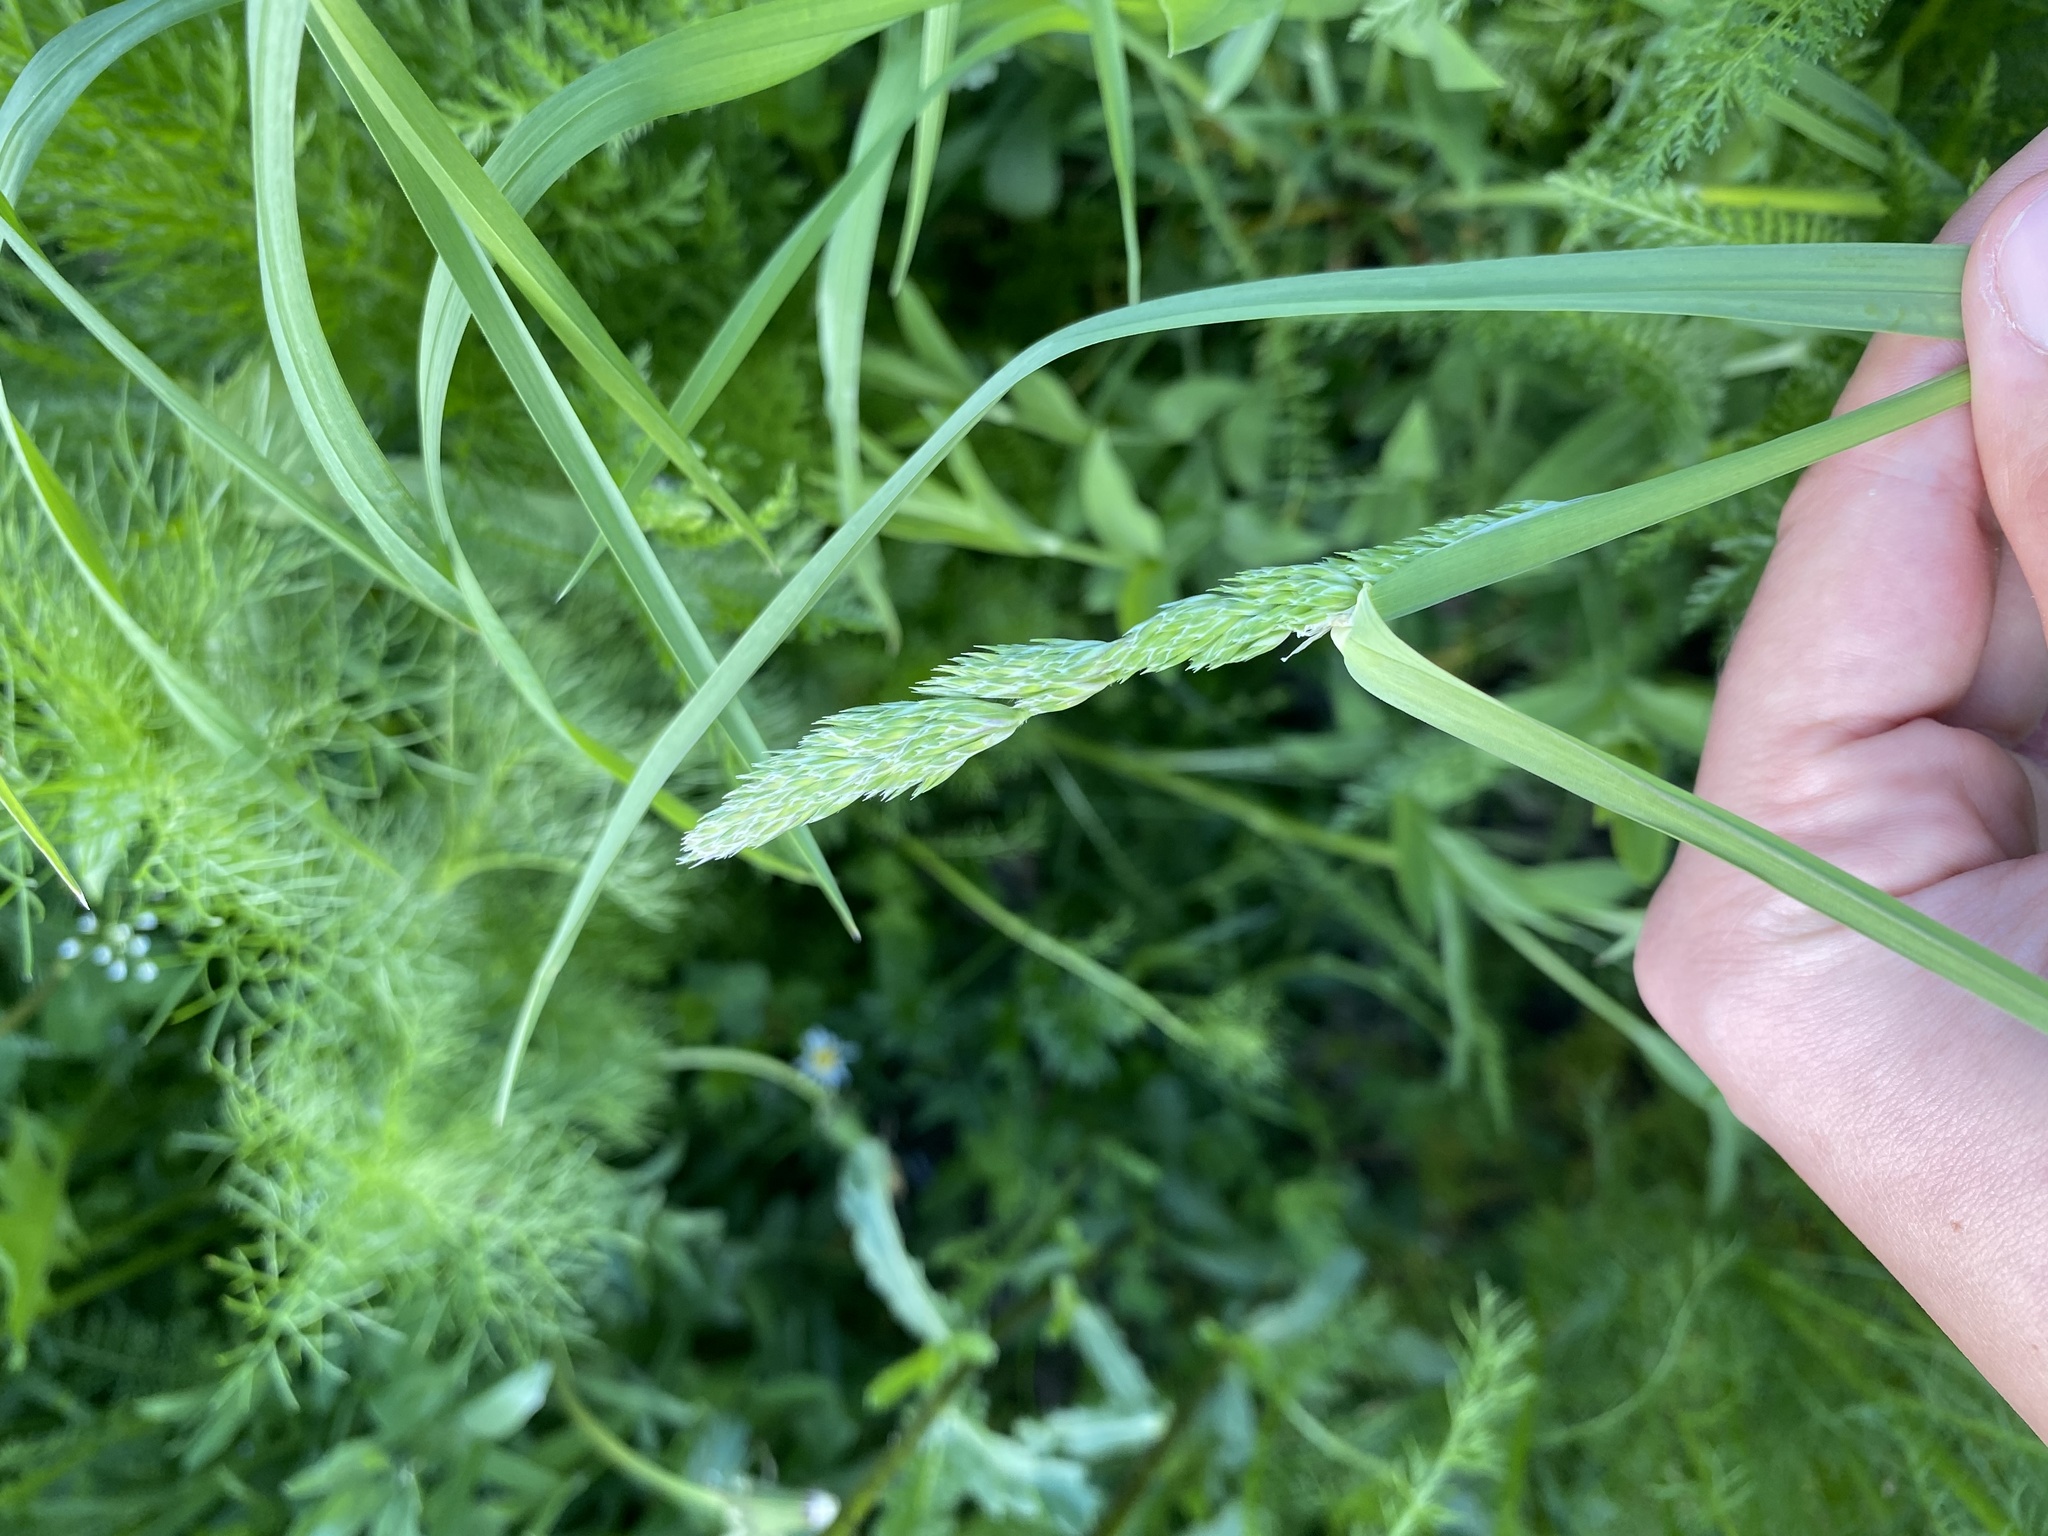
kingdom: Plantae
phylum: Tracheophyta
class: Liliopsida
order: Poales
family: Poaceae
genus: Dactylis
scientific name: Dactylis glomerata
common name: Orchardgrass
